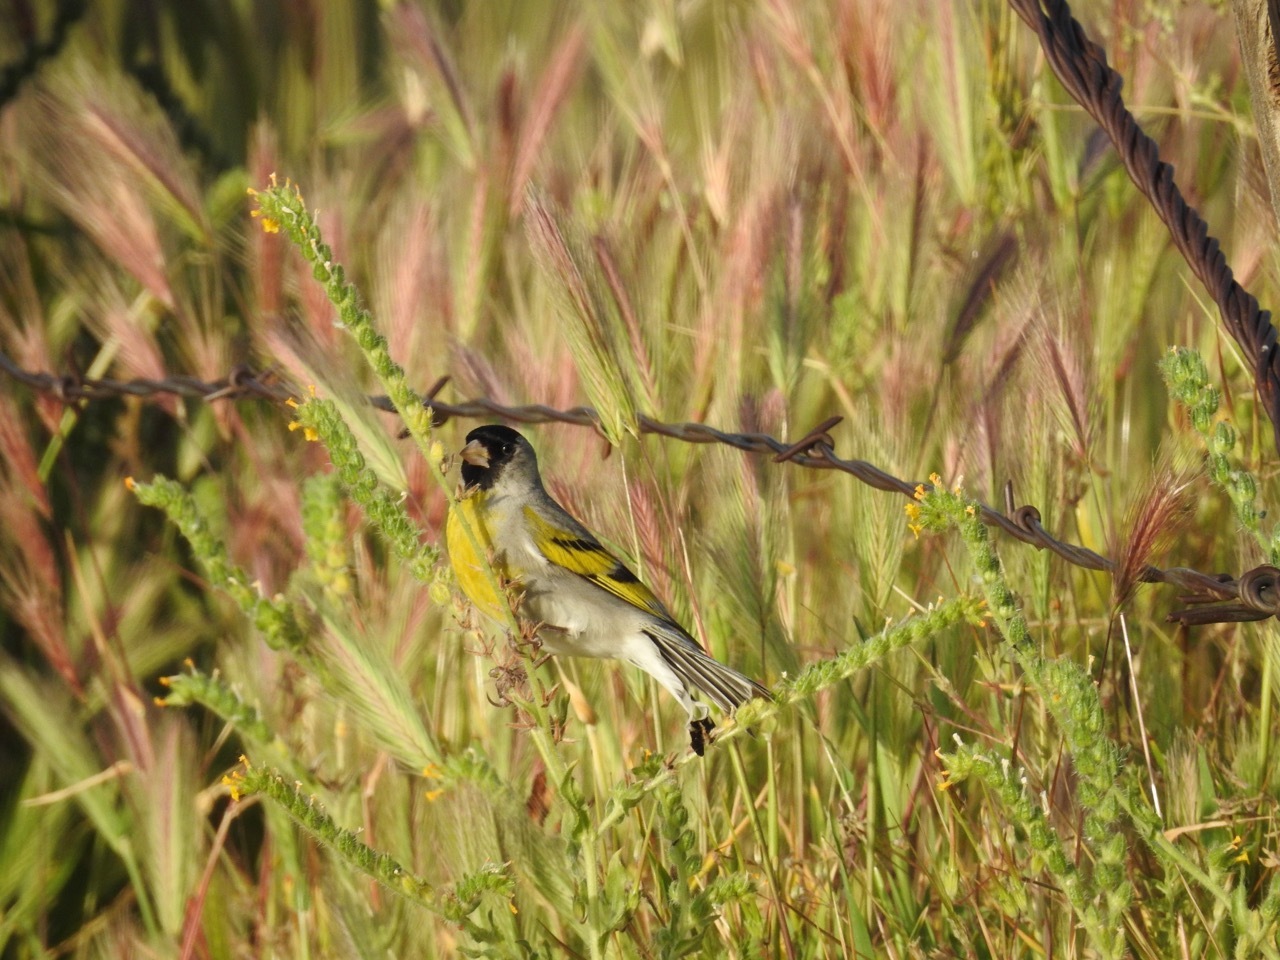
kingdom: Animalia
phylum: Chordata
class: Aves
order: Passeriformes
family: Fringillidae
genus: Spinus
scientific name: Spinus lawrencei
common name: Lawrence's goldfinch
